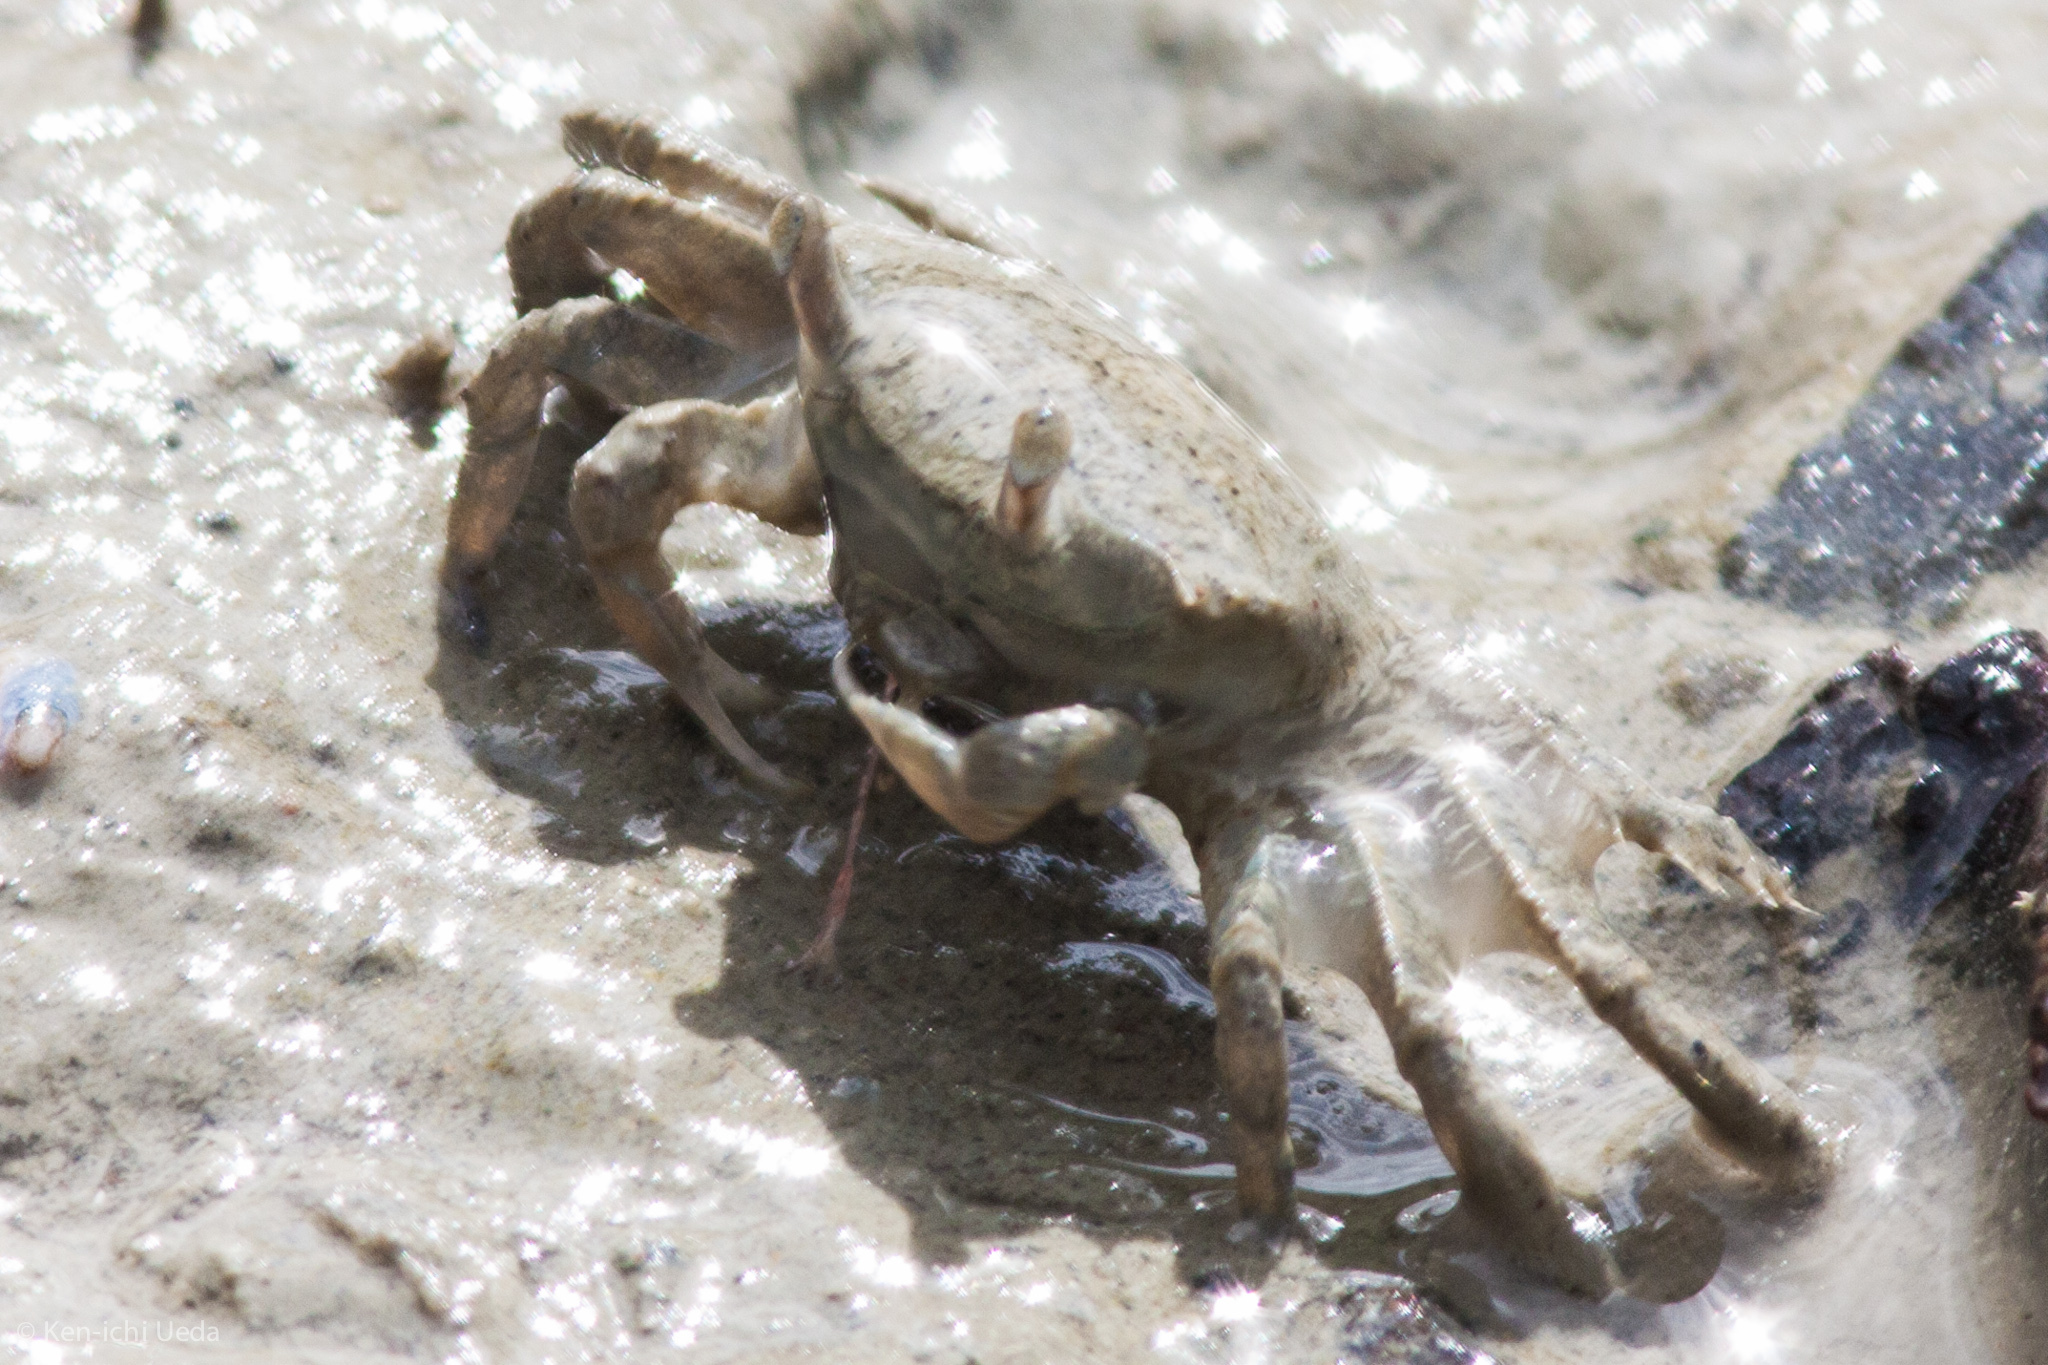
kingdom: Animalia
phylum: Arthropoda
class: Malacostraca
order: Decapoda
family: Varunidae
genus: Austrohelice
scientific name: Austrohelice crassa
